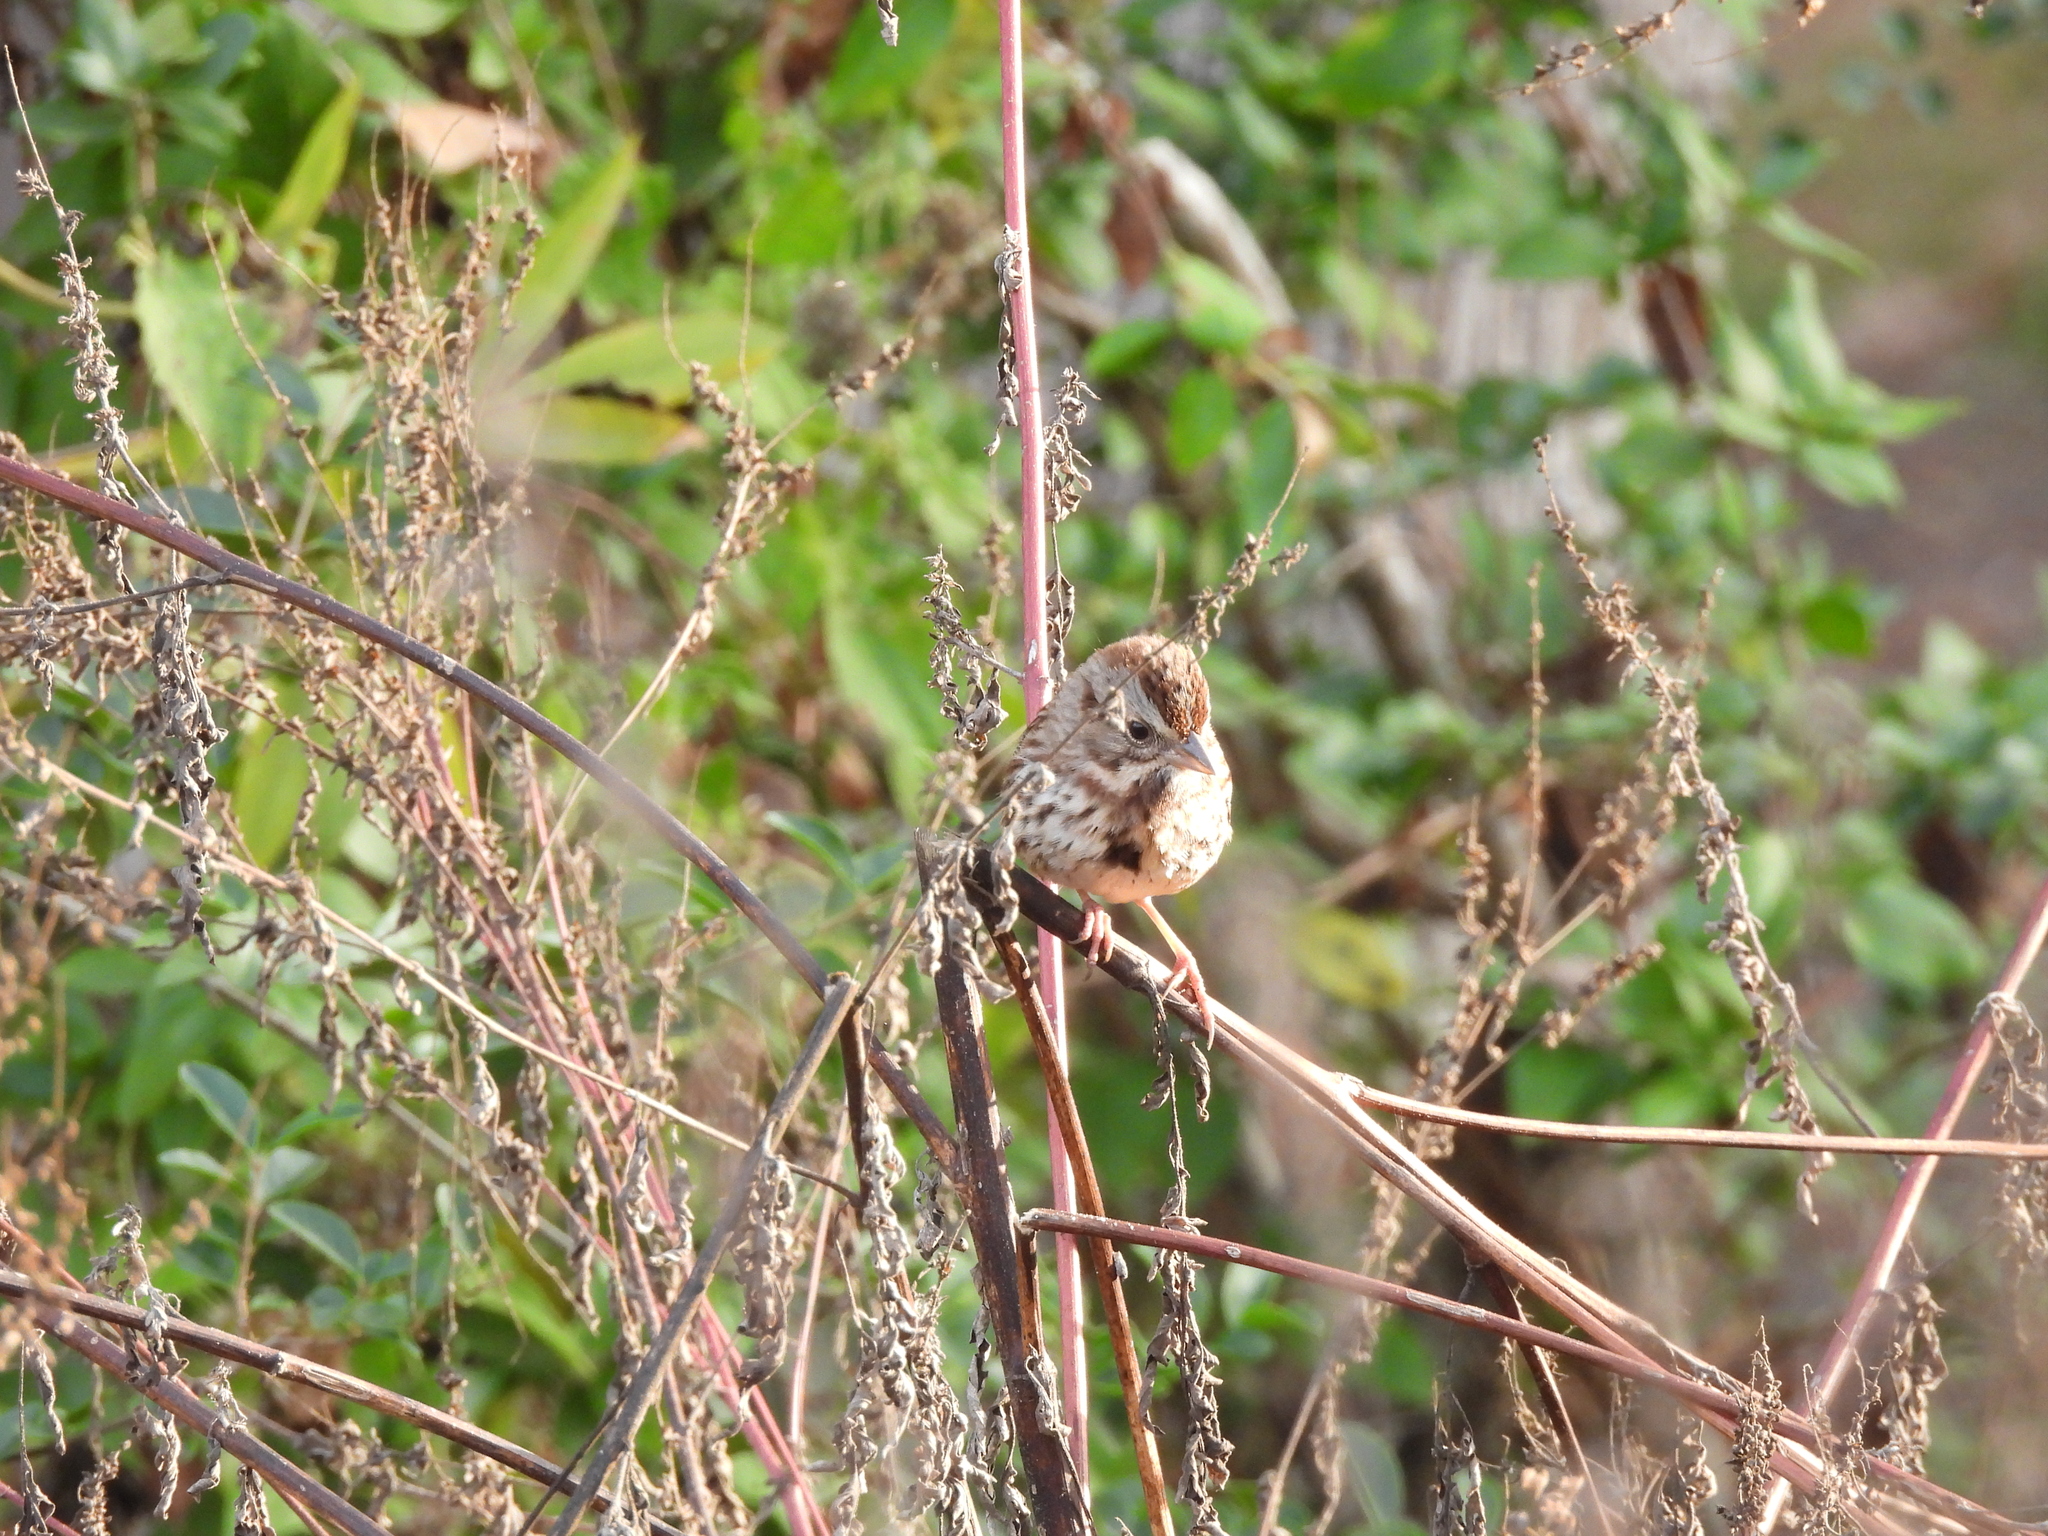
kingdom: Animalia
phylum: Chordata
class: Aves
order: Passeriformes
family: Passerellidae
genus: Melospiza
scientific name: Melospiza melodia
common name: Song sparrow
